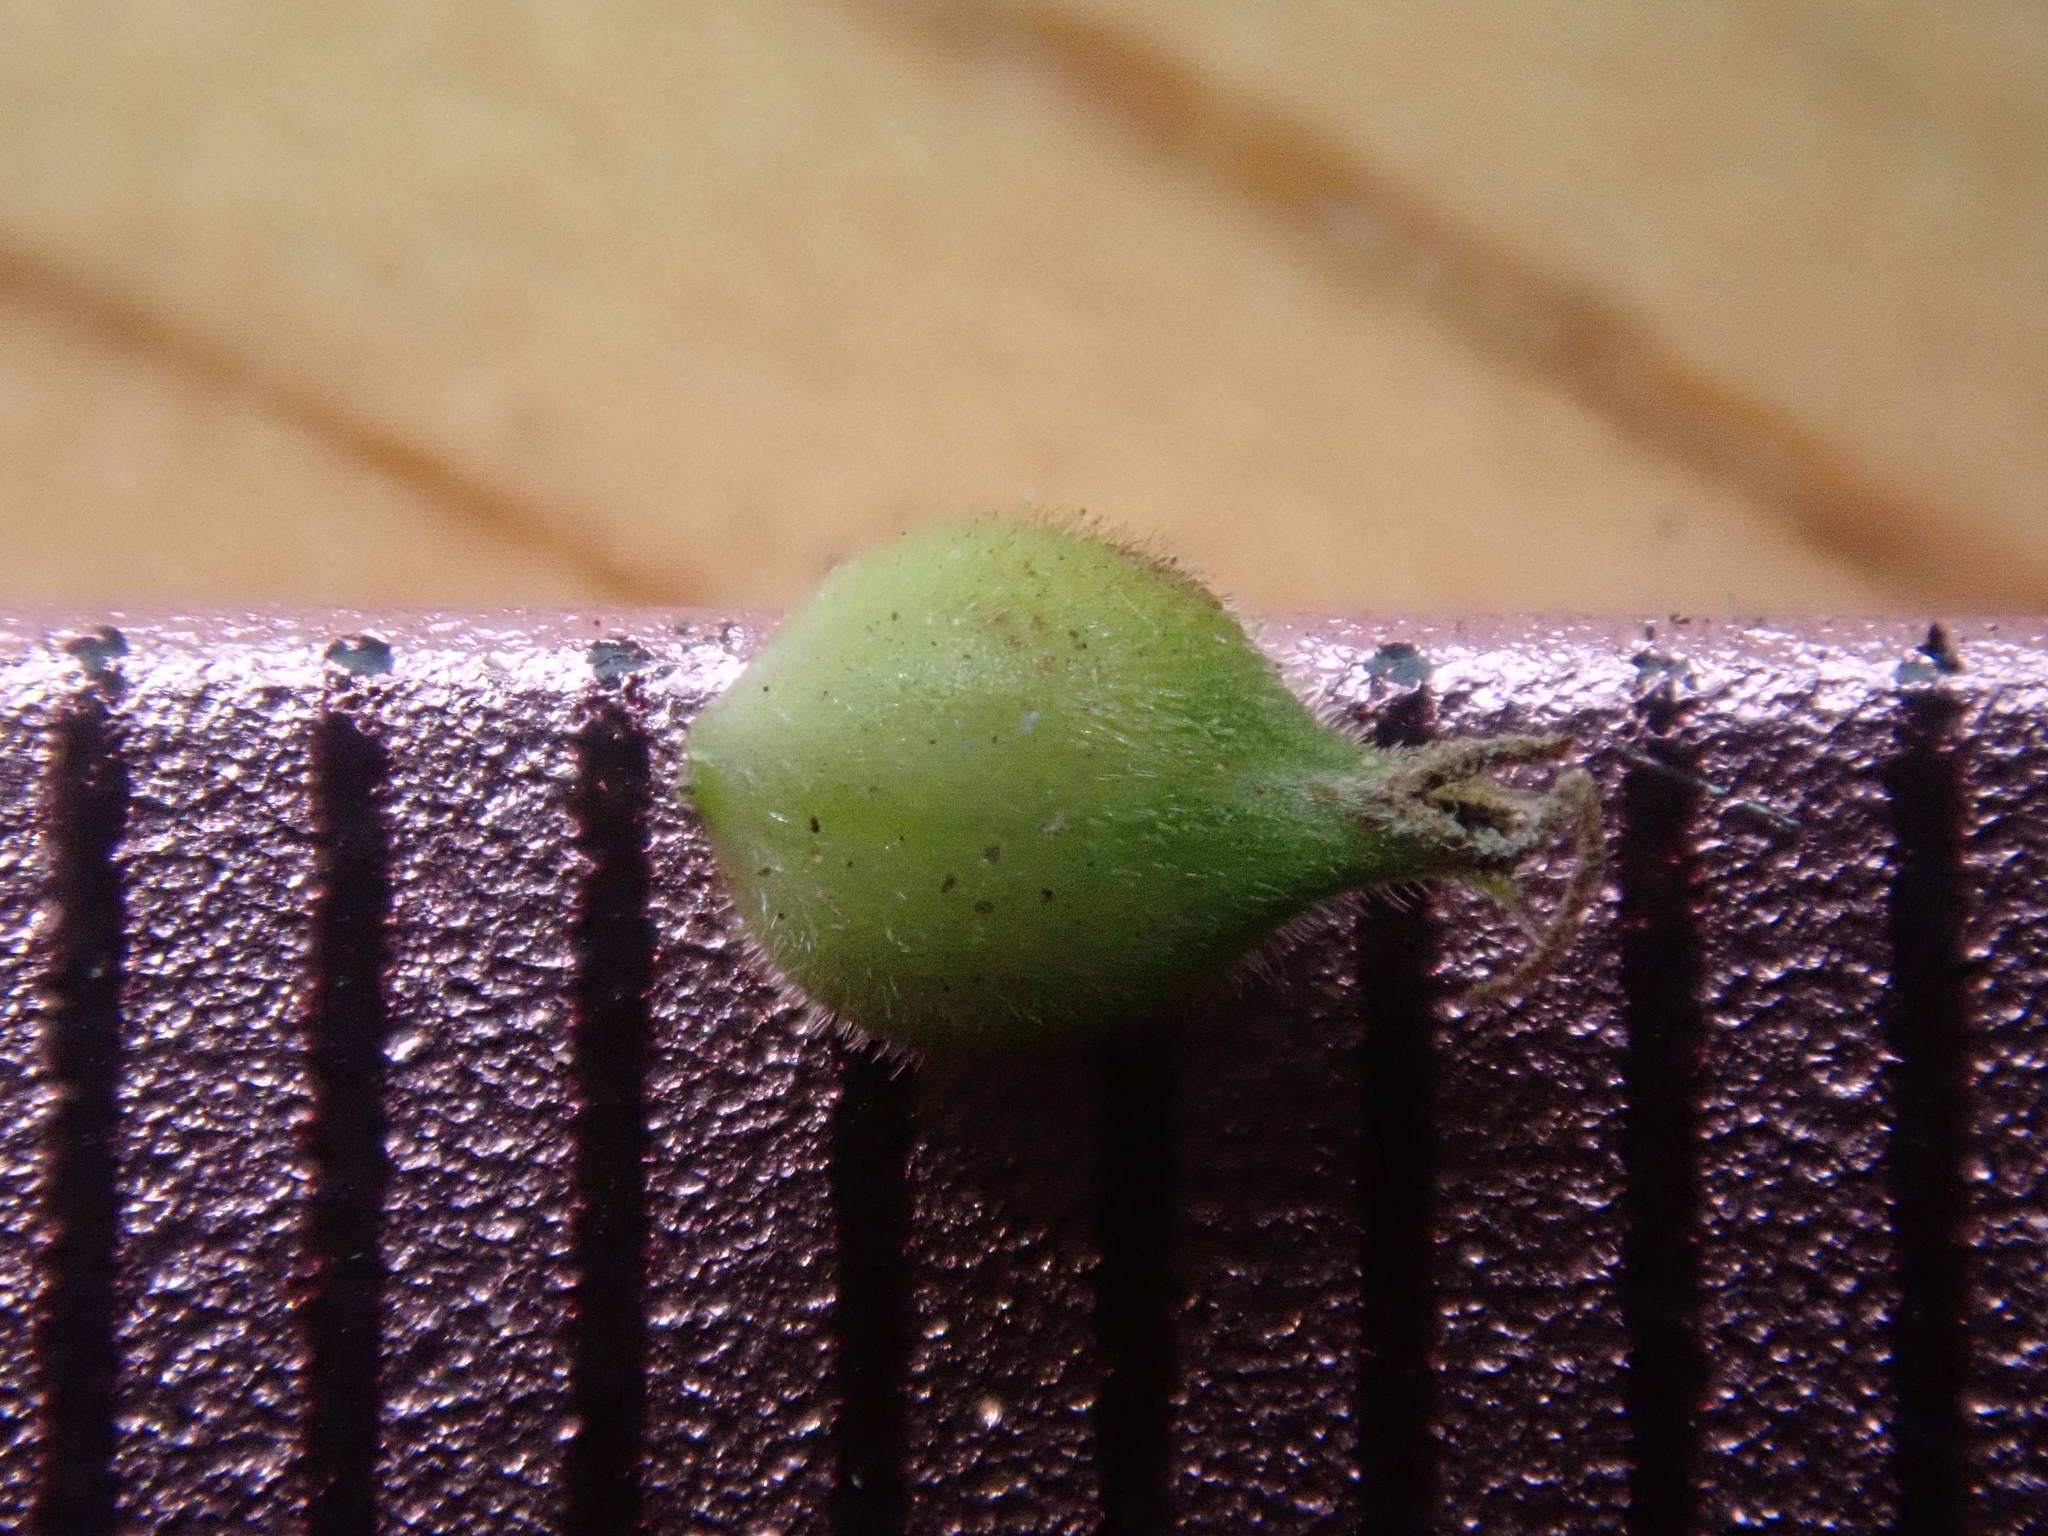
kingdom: Plantae
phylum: Tracheophyta
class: Liliopsida
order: Poales
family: Cyperaceae
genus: Carex
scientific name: Carex pellita
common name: Woolly sedge
